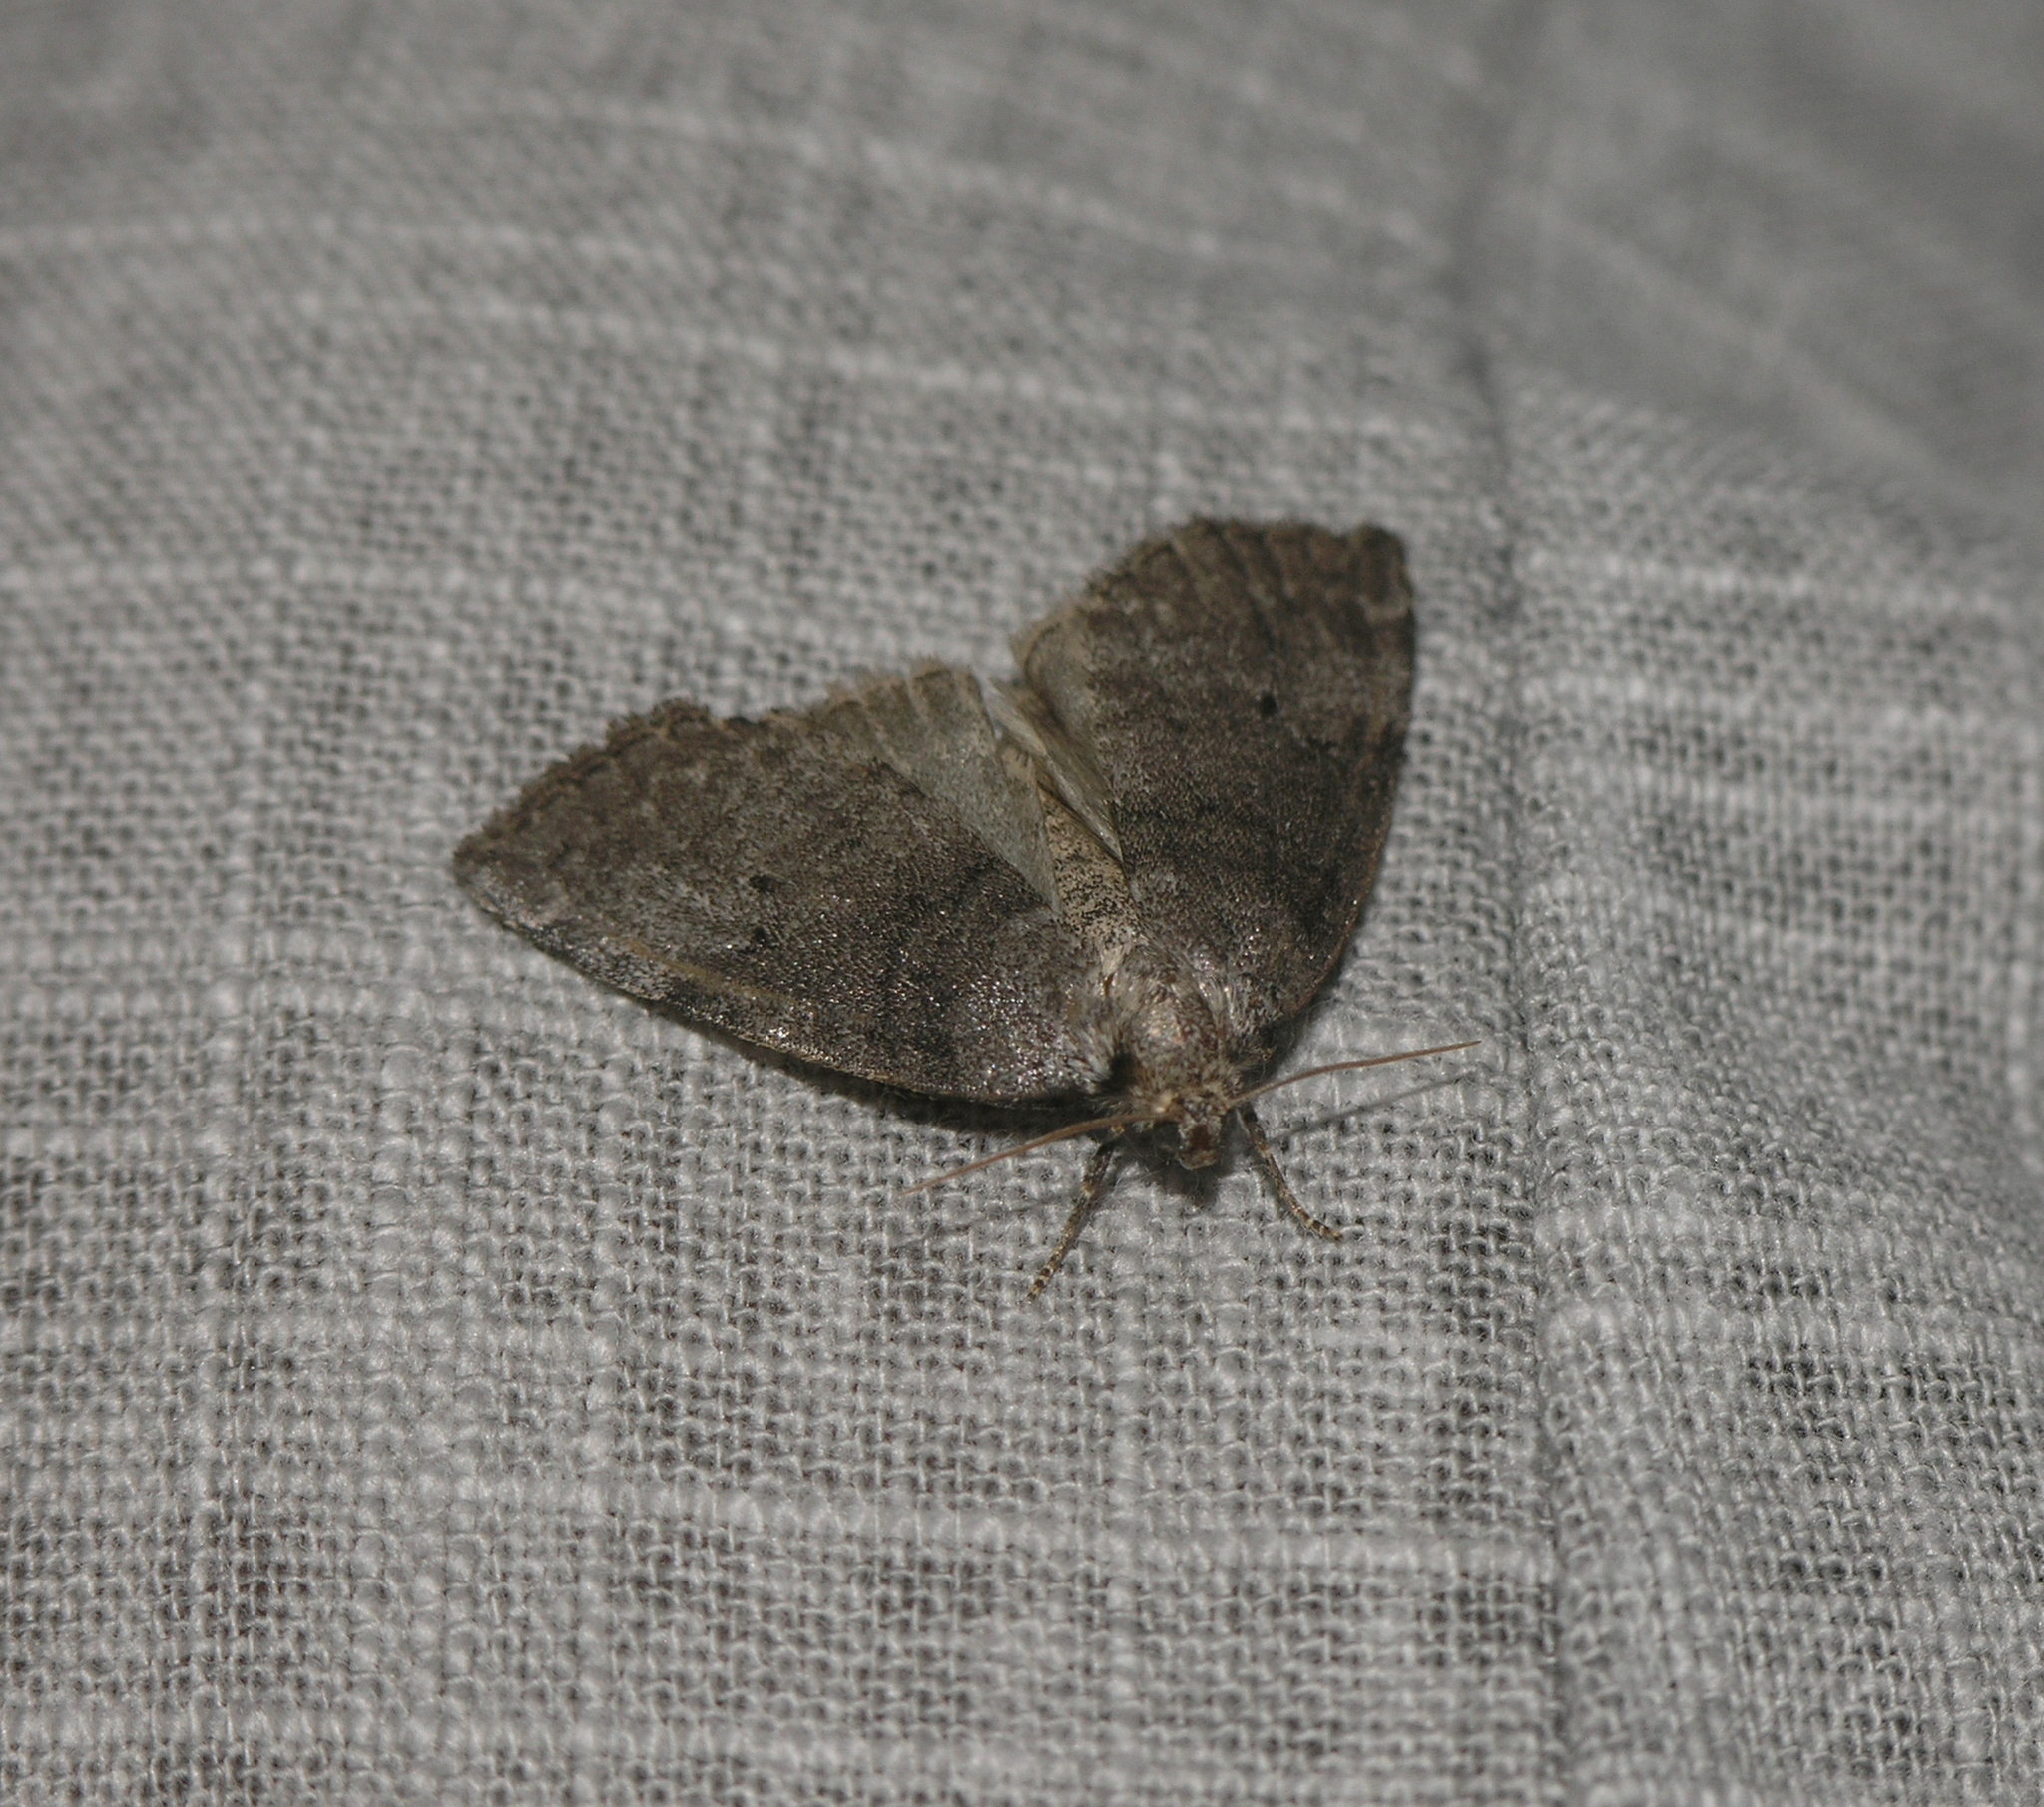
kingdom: Animalia
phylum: Arthropoda
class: Insecta
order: Lepidoptera
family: Drepanidae
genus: Ochropacha
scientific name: Ochropacha duplaris
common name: Common lutestring
